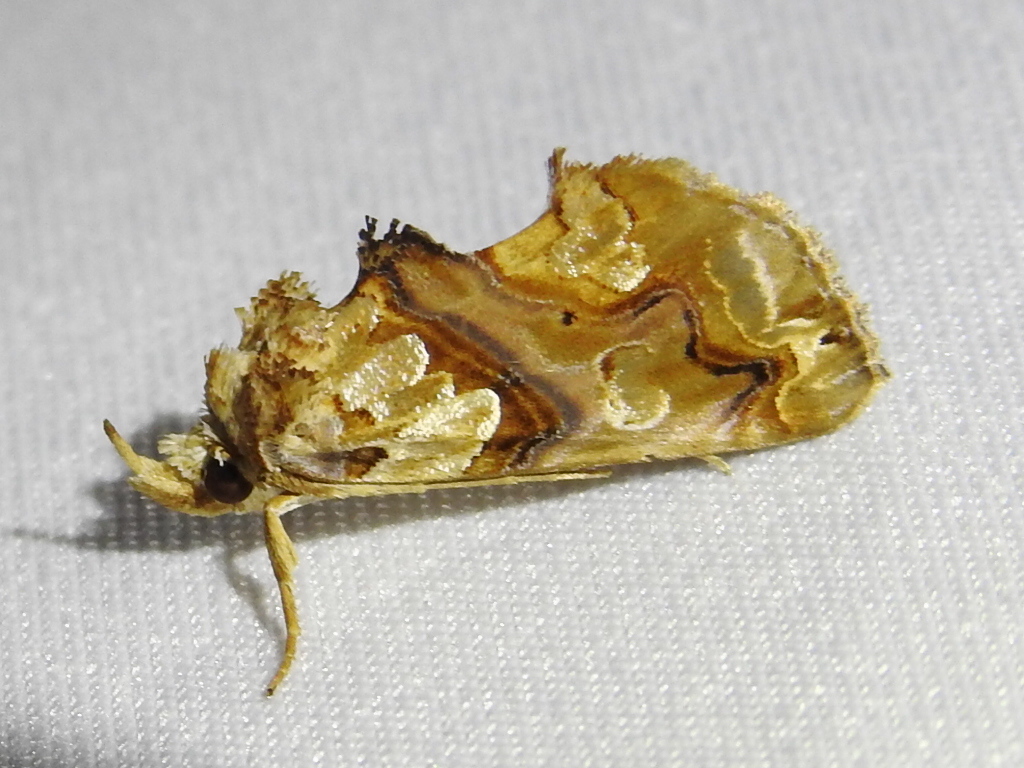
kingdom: Animalia
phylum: Arthropoda
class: Insecta
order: Lepidoptera
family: Erebidae
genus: Plusiodonta
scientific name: Plusiodonta compressipalpis
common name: Moonseed moth
